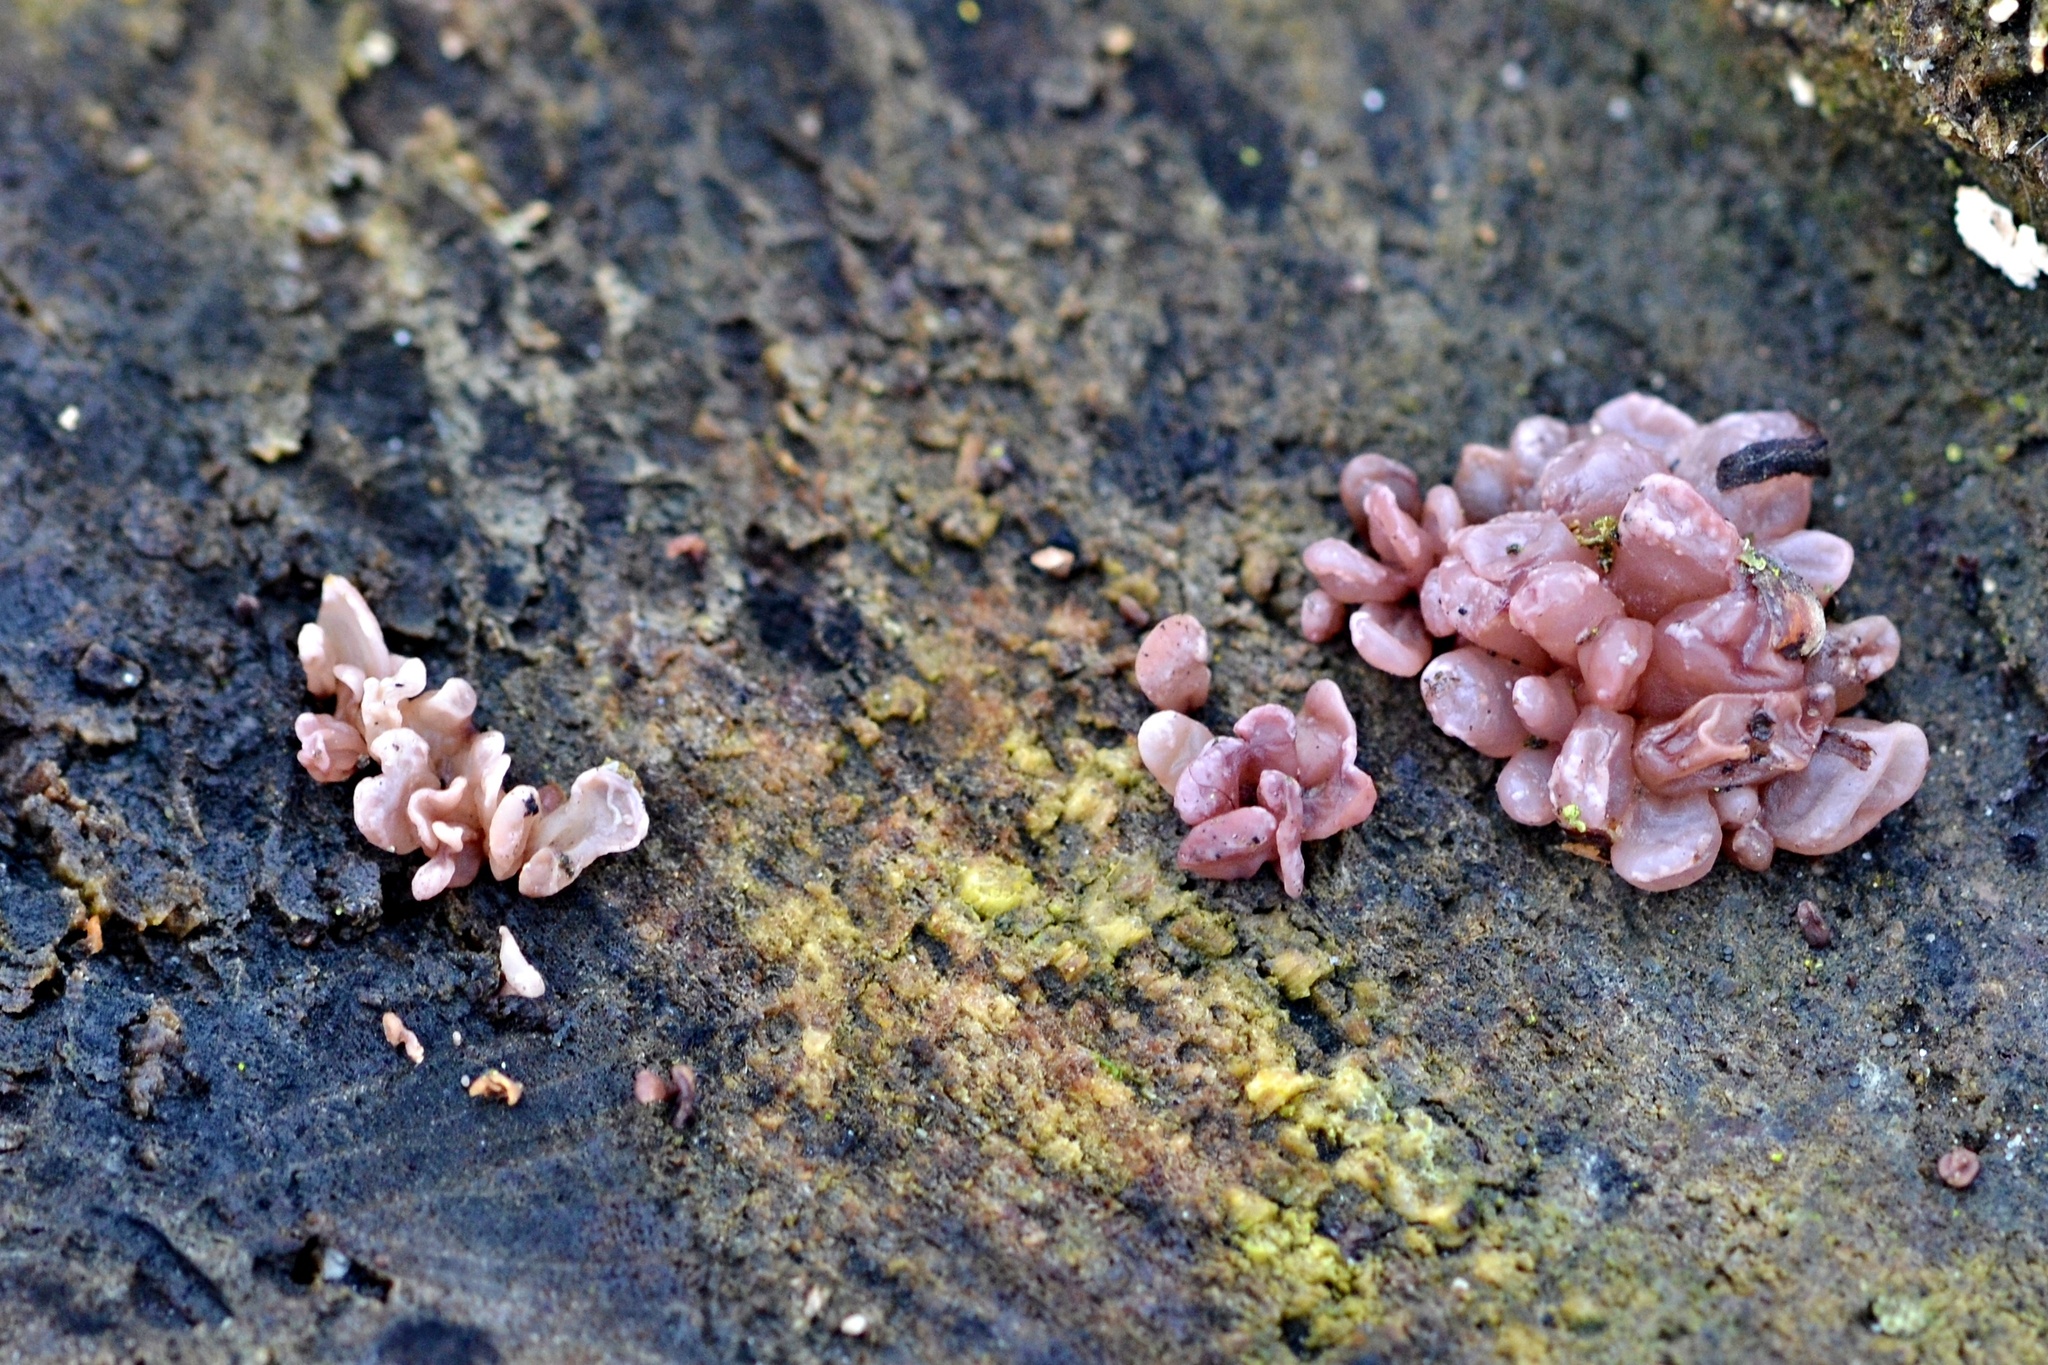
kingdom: Fungi
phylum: Ascomycota
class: Leotiomycetes
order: Helotiales
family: Gelatinodiscaceae
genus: Ascocoryne
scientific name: Ascocoryne sarcoides
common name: Purple jellydisc
